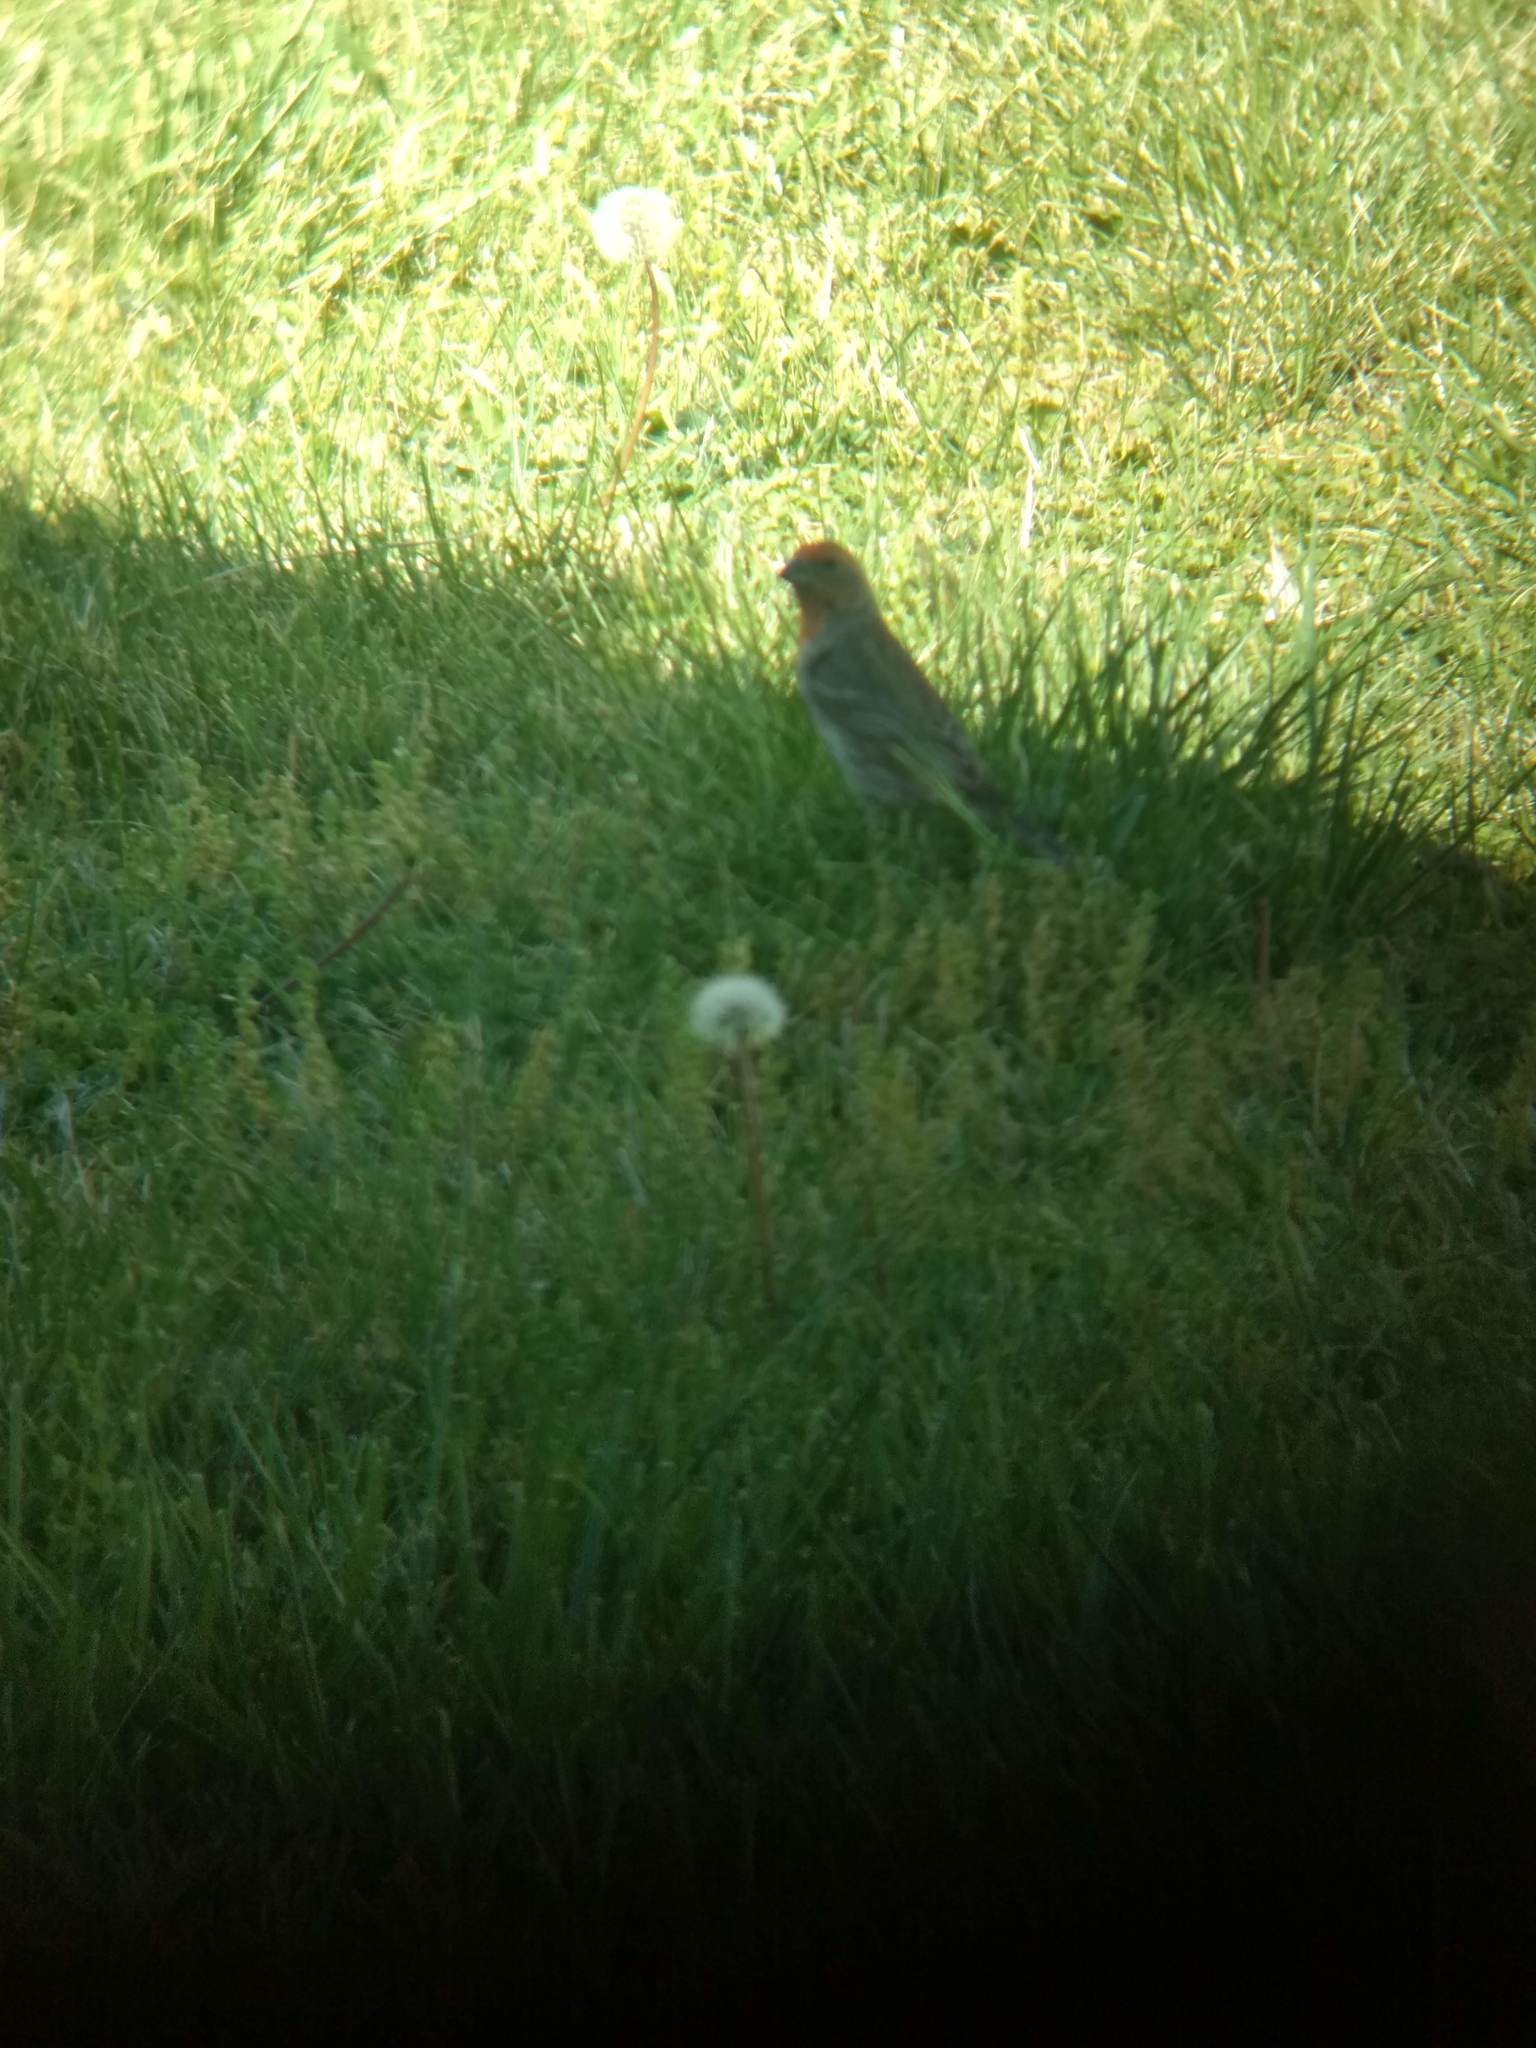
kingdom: Animalia
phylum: Chordata
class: Aves
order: Passeriformes
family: Fringillidae
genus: Haemorhous
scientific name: Haemorhous mexicanus
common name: House finch
